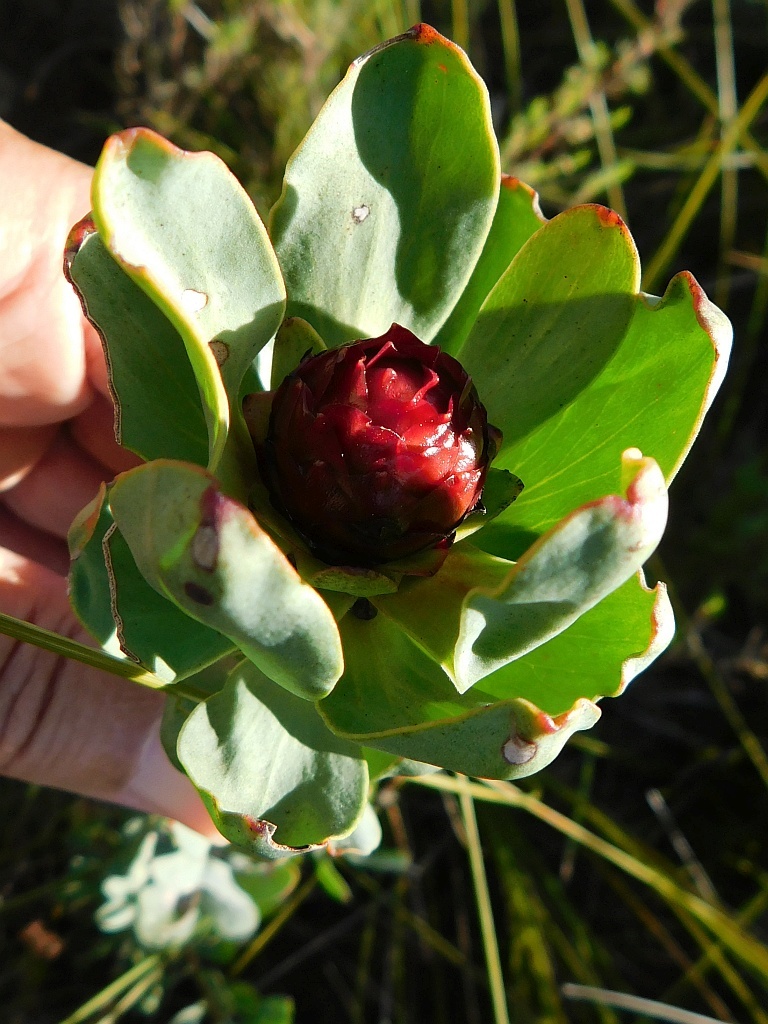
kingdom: Plantae
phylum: Tracheophyta
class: Magnoliopsida
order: Proteales
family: Proteaceae
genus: Leucadendron
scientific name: Leucadendron elimense
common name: Elim conebush
